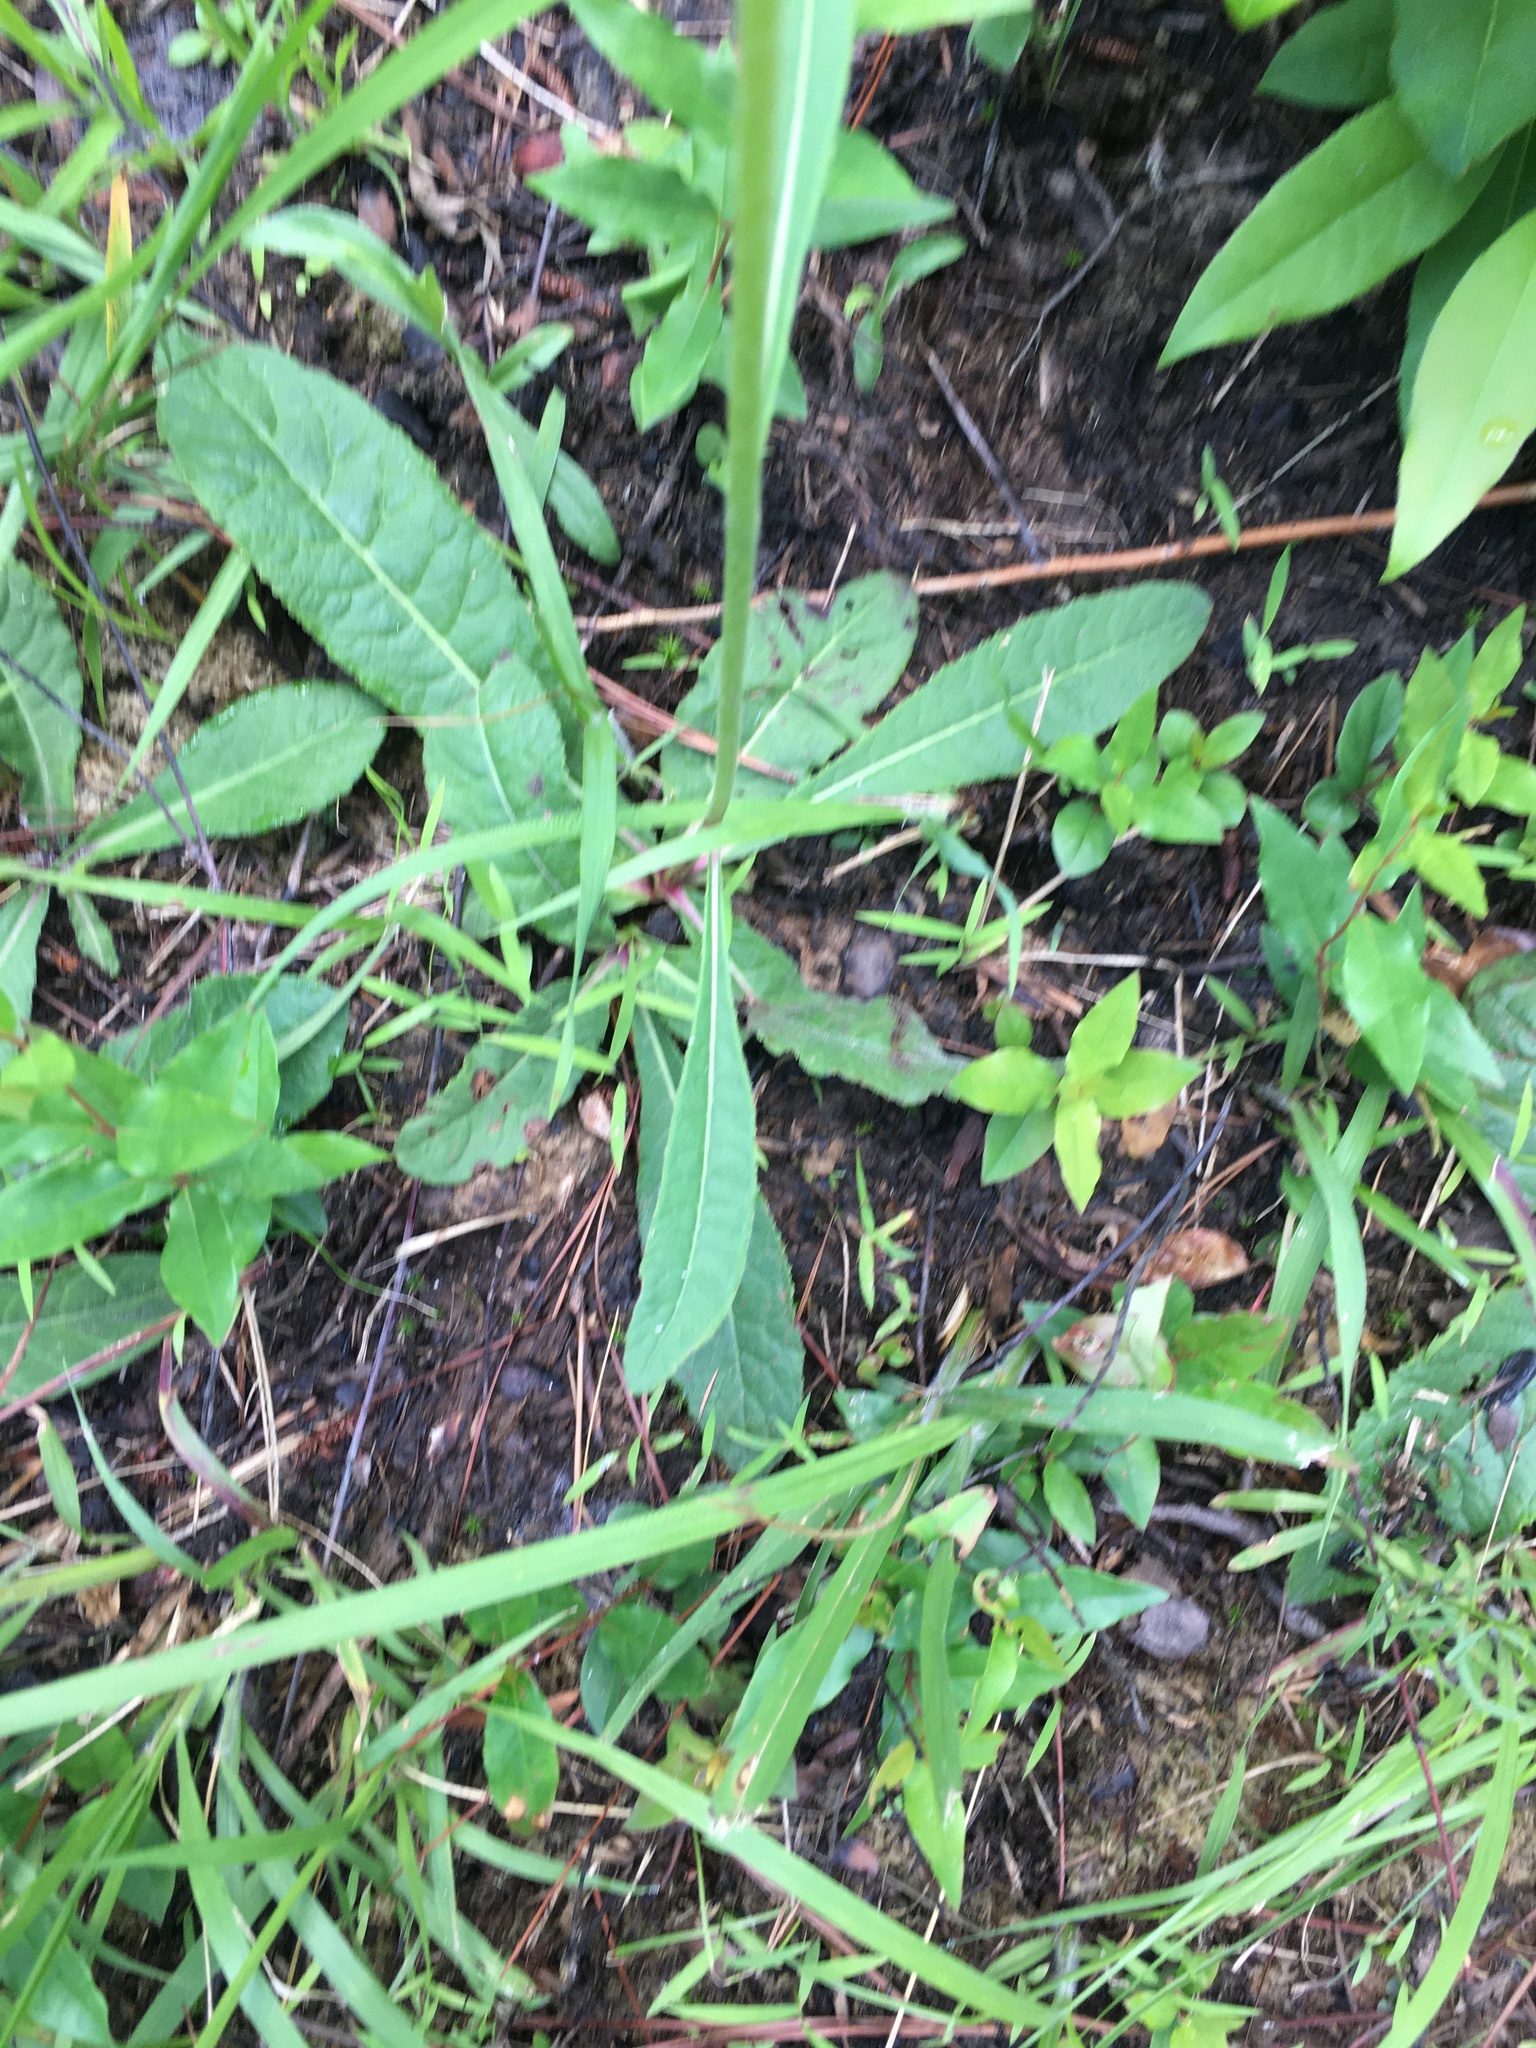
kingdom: Plantae
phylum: Tracheophyta
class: Magnoliopsida
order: Asterales
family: Asteraceae
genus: Vernonia
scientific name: Vernonia acaulis
